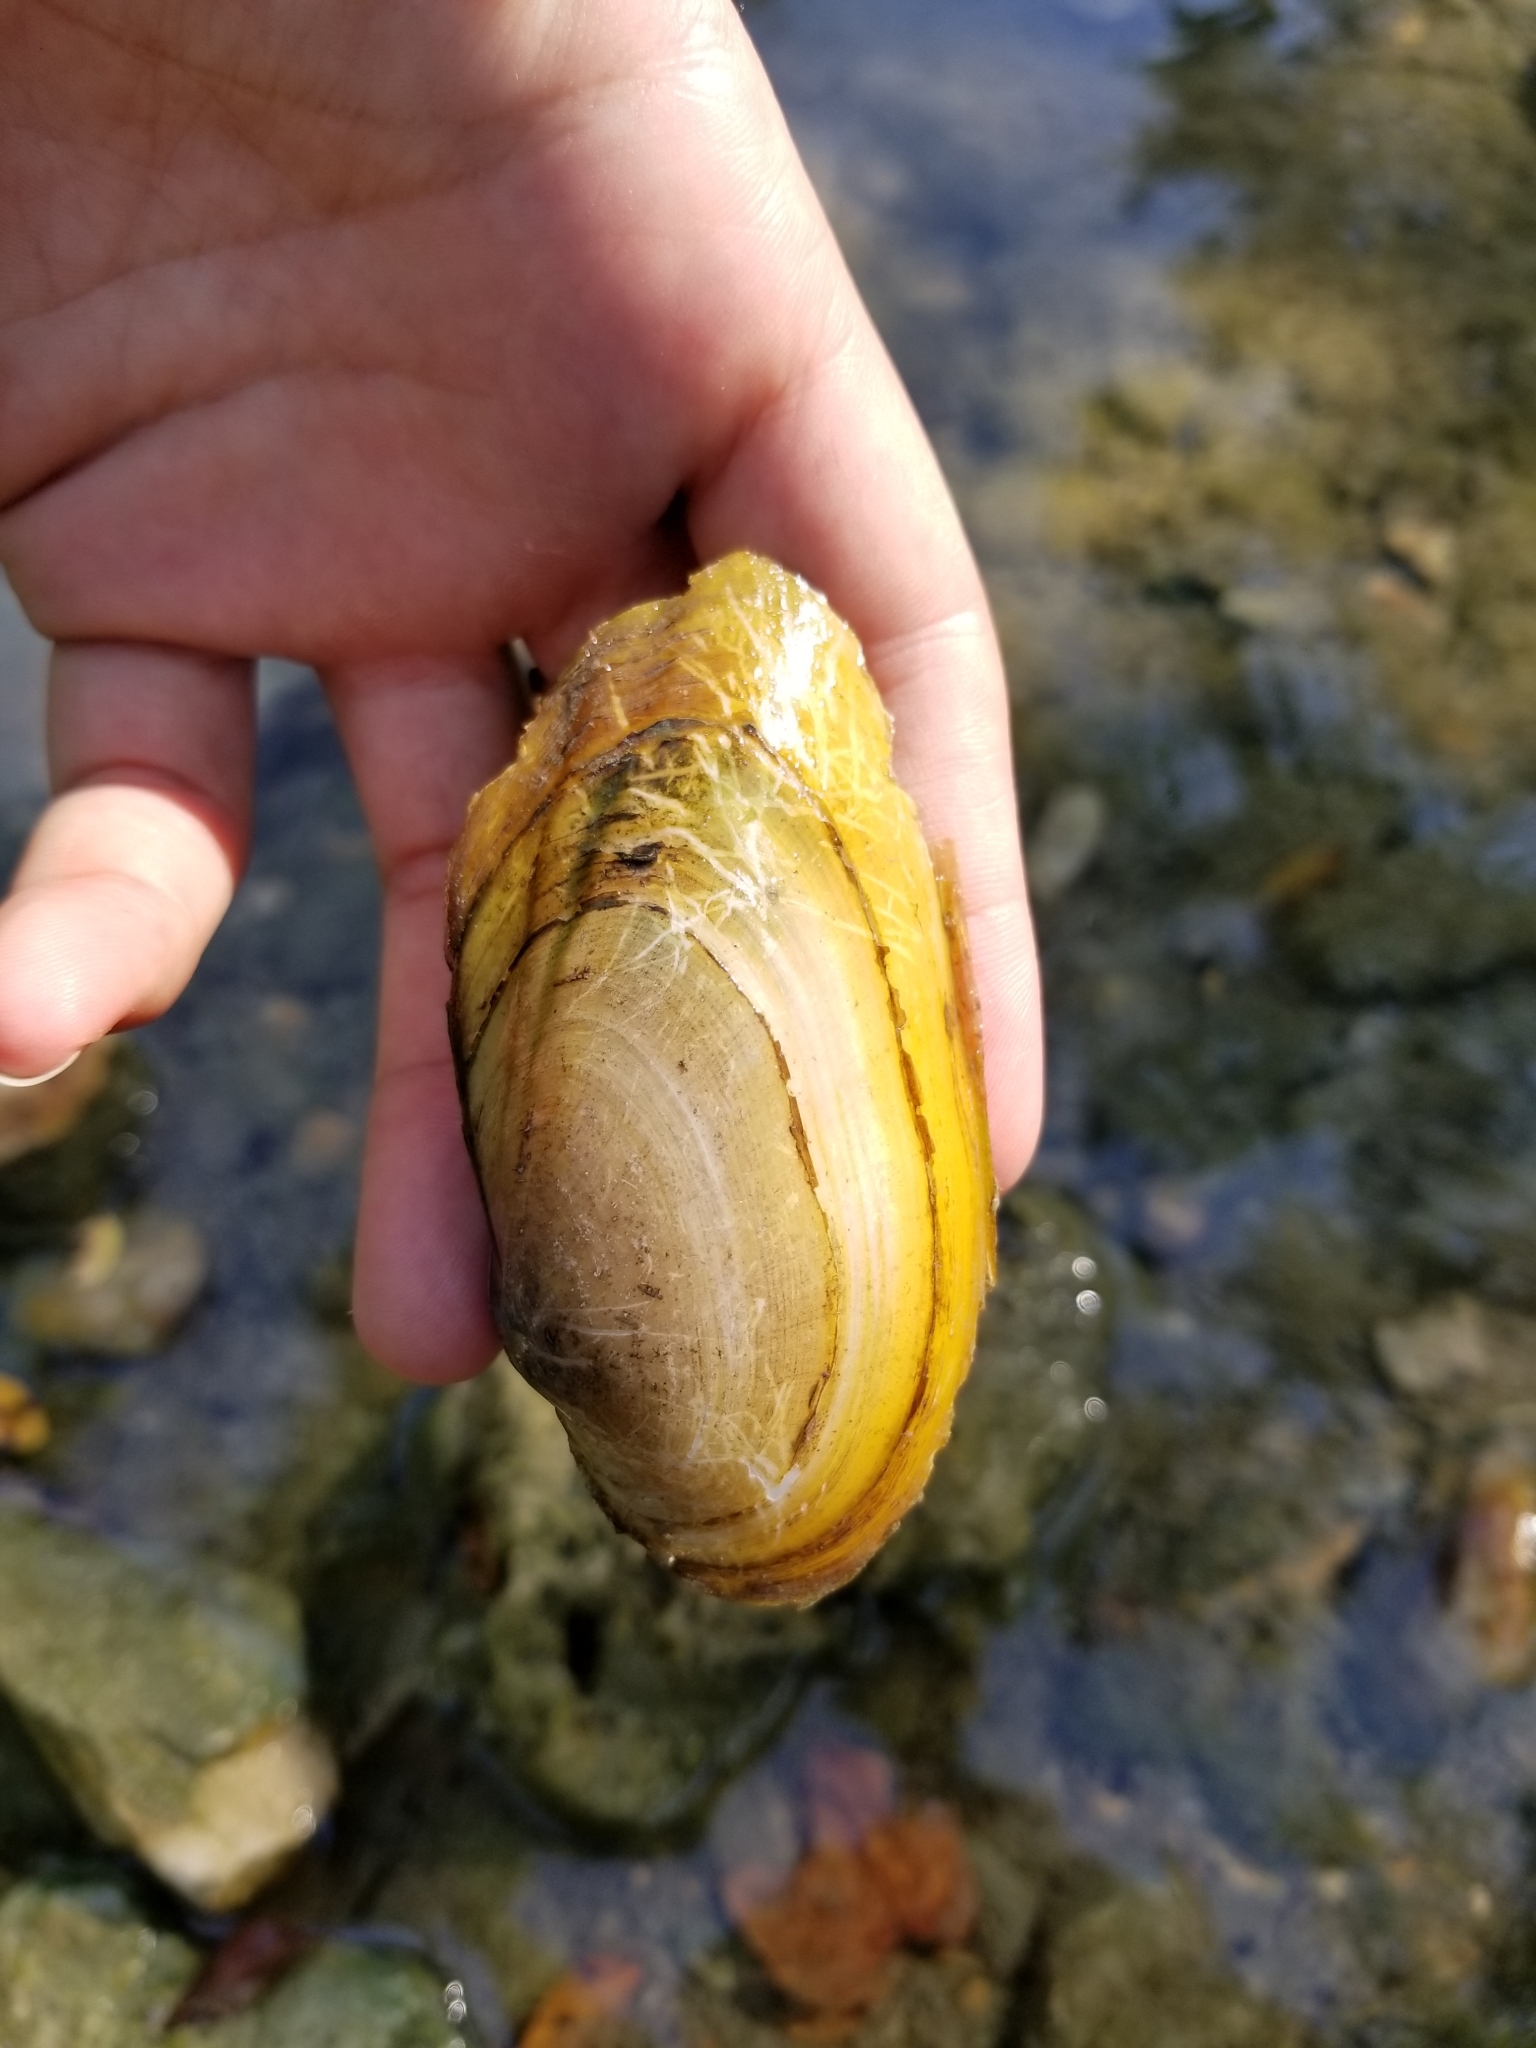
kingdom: Animalia
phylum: Mollusca
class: Bivalvia
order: Unionida
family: Unionidae
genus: Uniomerus
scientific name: Uniomerus tetralasmus
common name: Pondhorn
